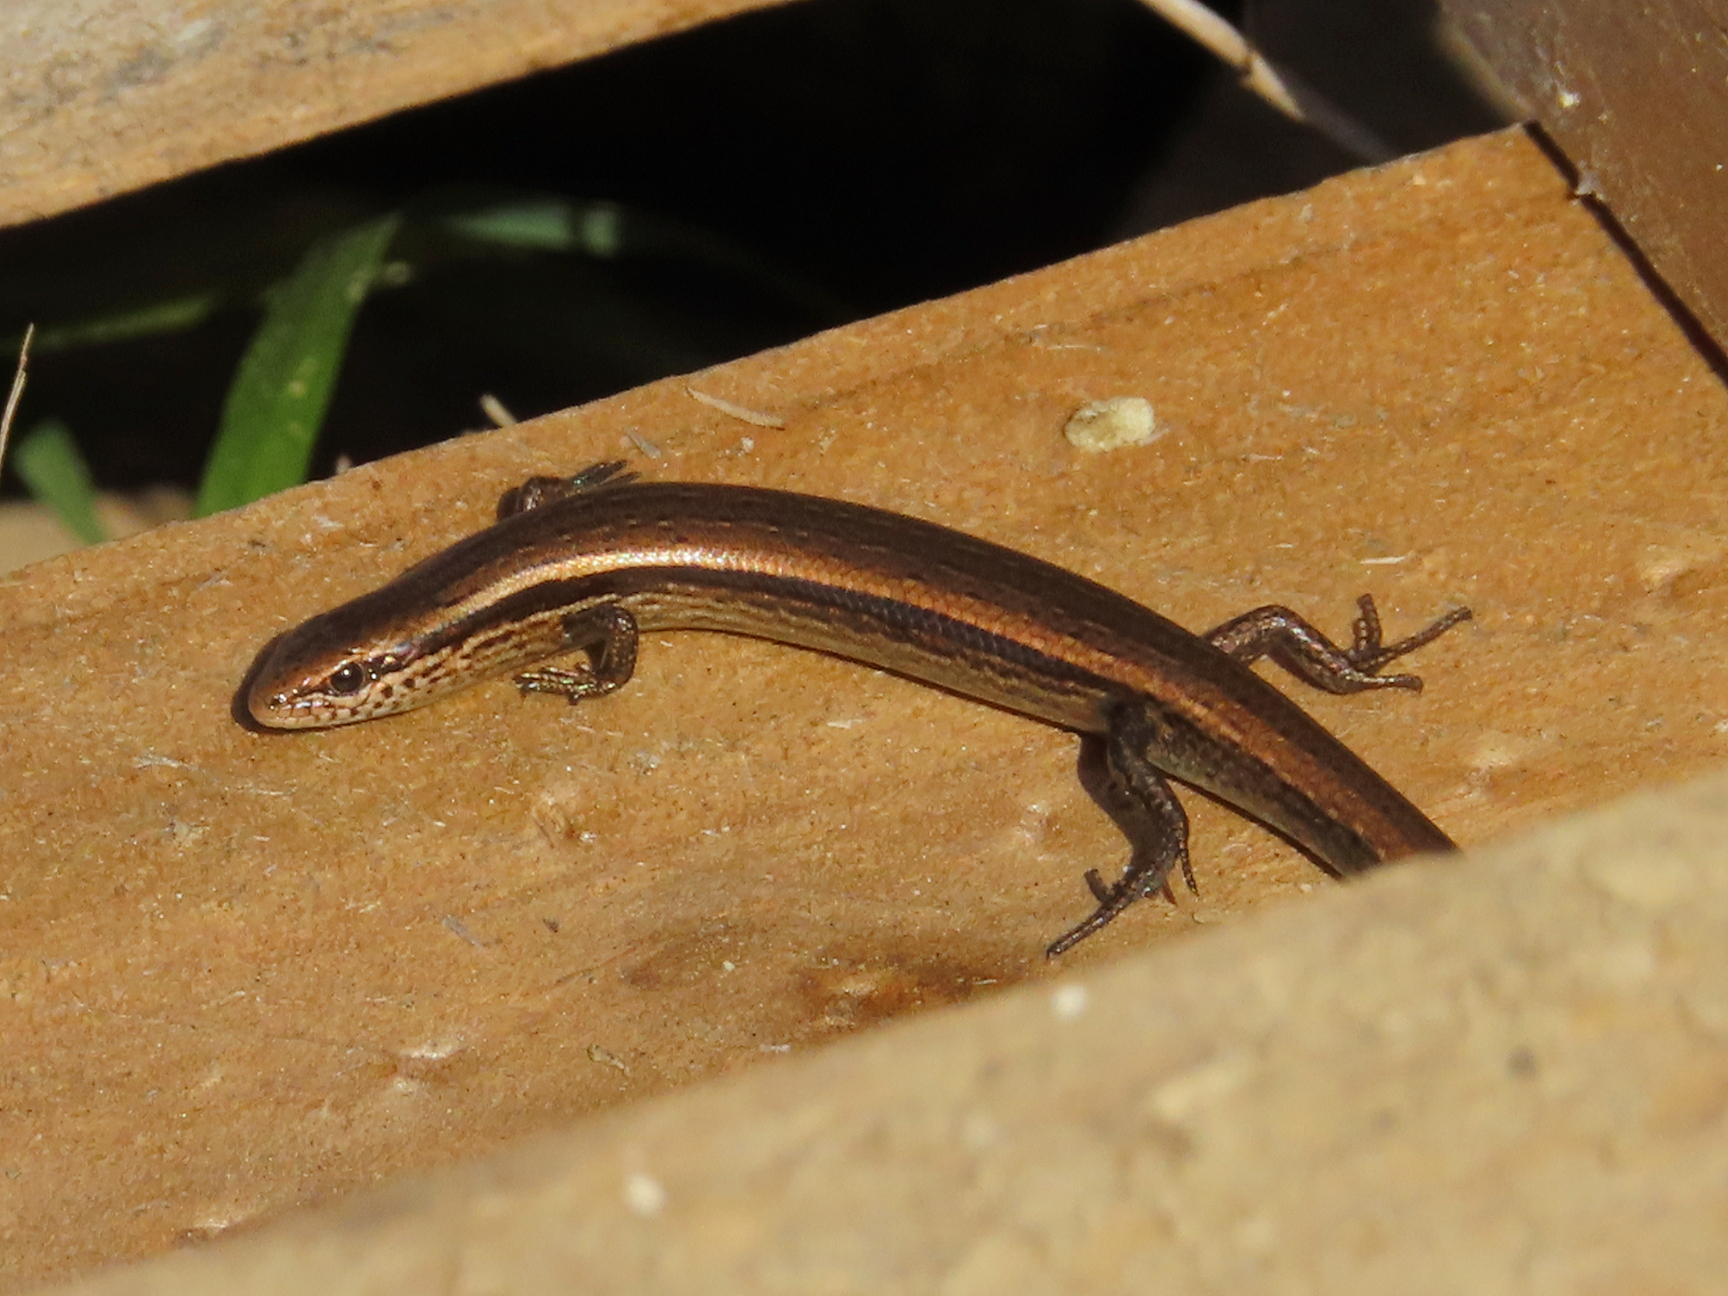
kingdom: Animalia
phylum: Chordata
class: Squamata
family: Scincidae
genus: Ablepharus
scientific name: Ablepharus kitaibelii
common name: Juniper skink
